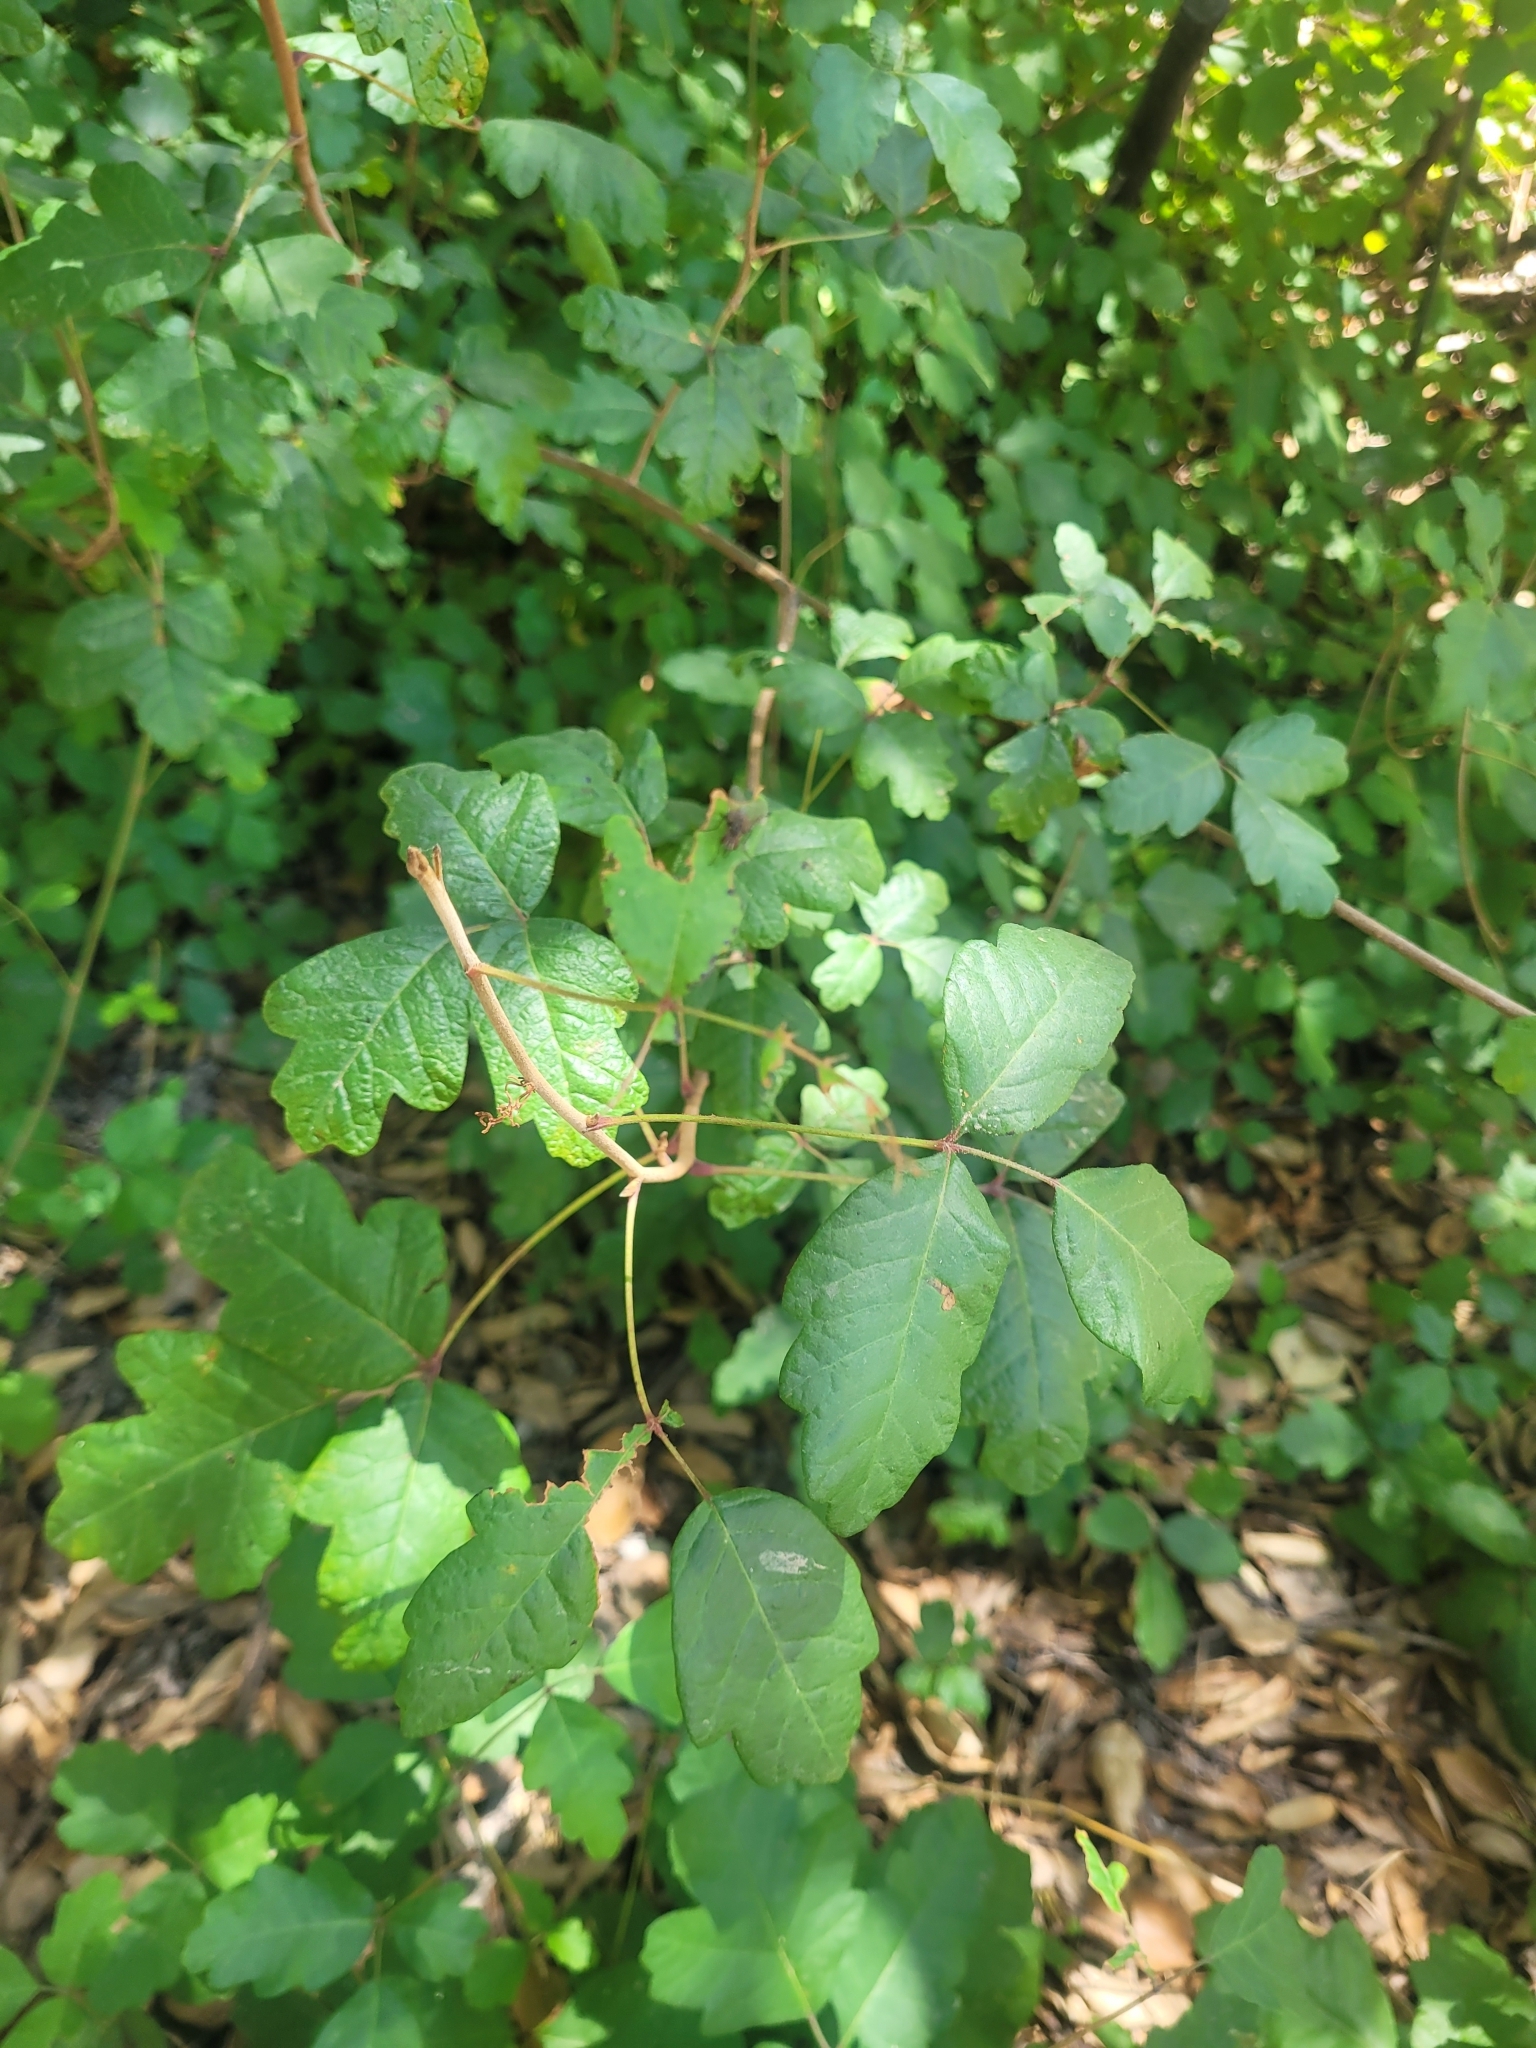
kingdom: Plantae
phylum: Tracheophyta
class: Magnoliopsida
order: Sapindales
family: Anacardiaceae
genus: Toxicodendron
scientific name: Toxicodendron diversilobum
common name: Pacific poison-oak
